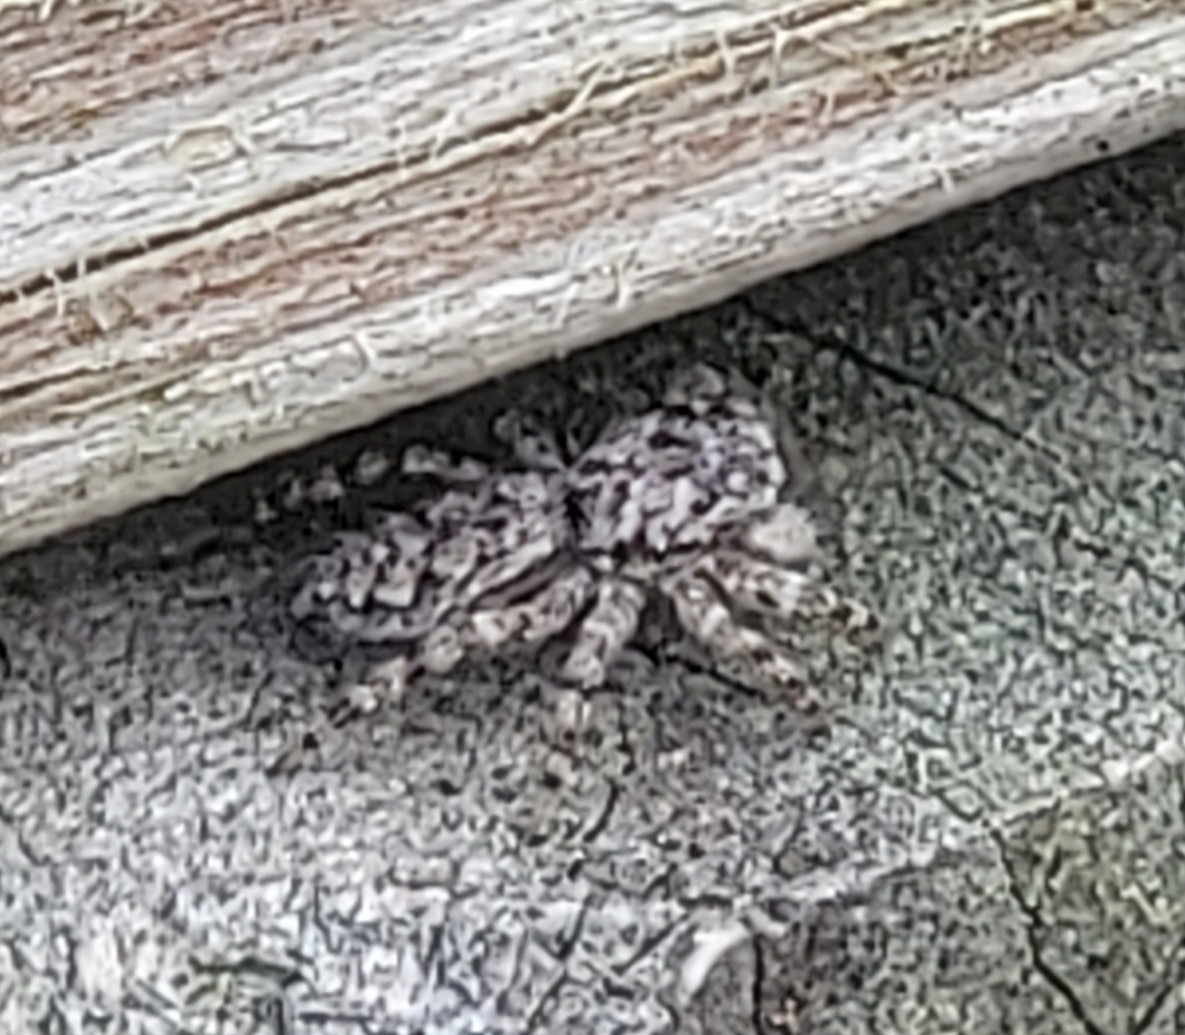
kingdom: Animalia
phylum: Arthropoda
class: Arachnida
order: Araneae
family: Salticidae
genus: Platycryptus
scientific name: Platycryptus undatus
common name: Tan jumping spider
